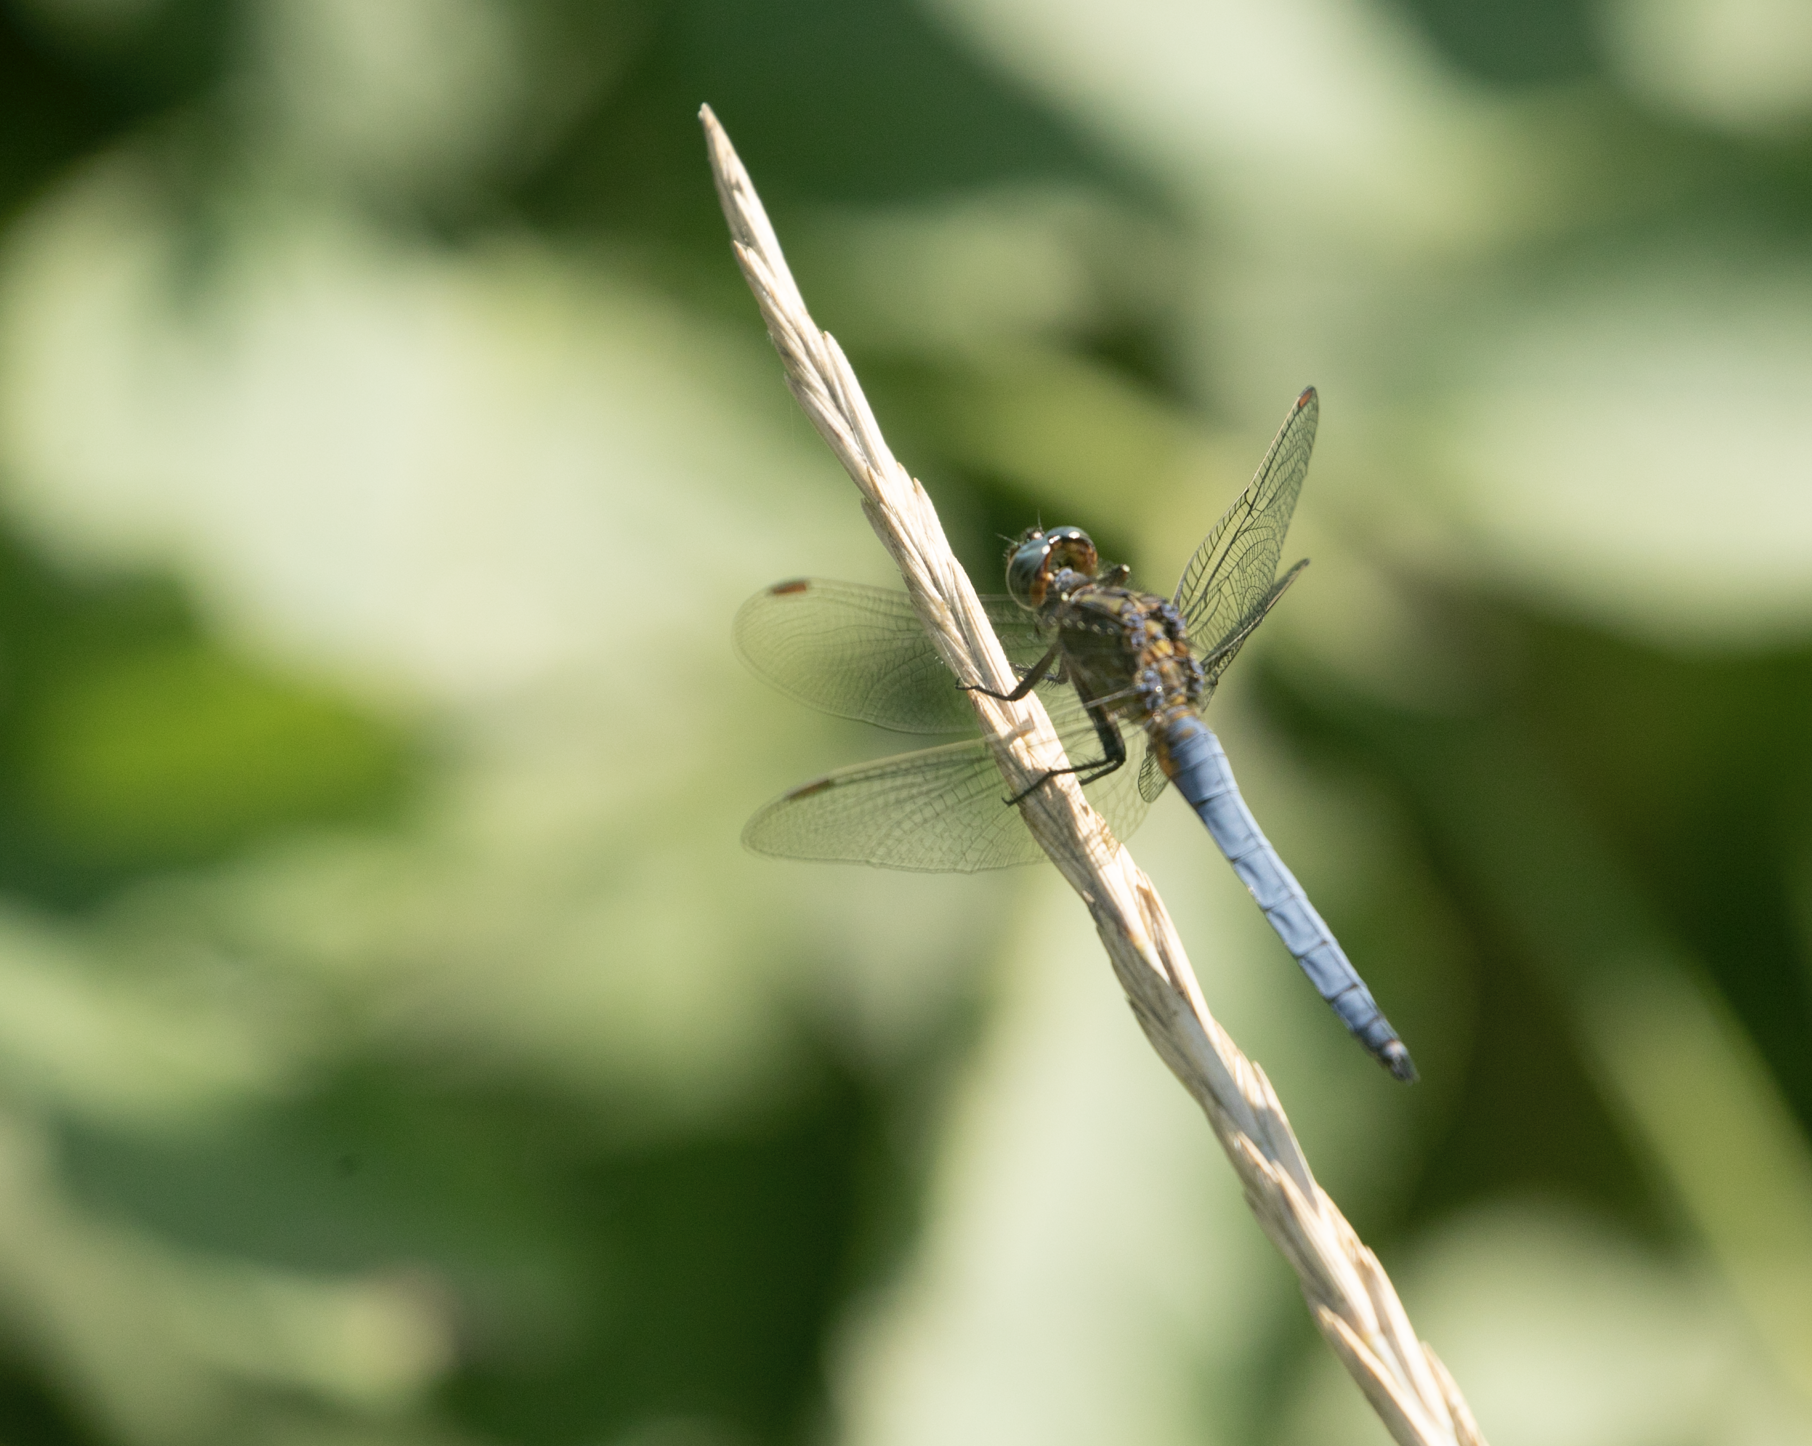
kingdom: Animalia
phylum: Arthropoda
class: Insecta
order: Odonata
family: Libellulidae
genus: Orthetrum
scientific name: Orthetrum coerulescens
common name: Keeled skimmer
